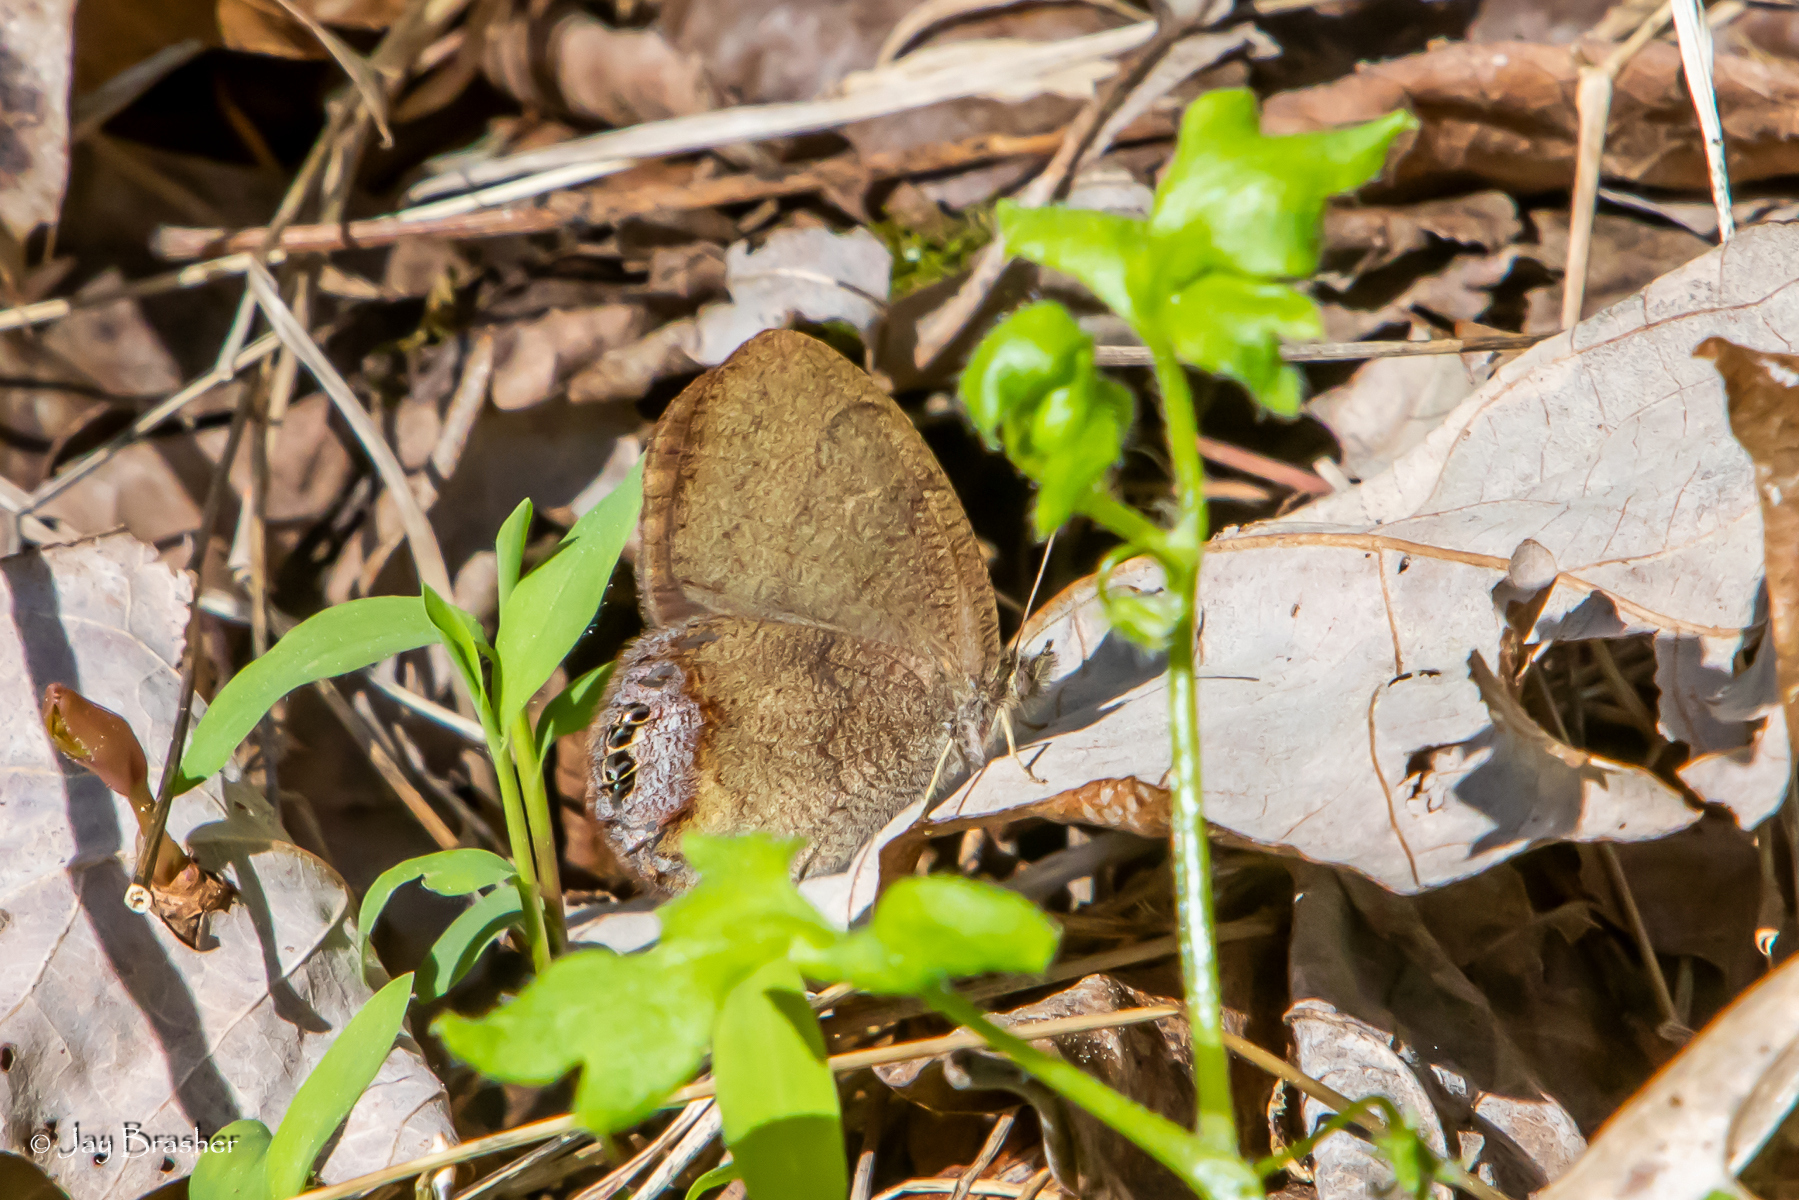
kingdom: Animalia
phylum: Arthropoda
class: Insecta
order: Lepidoptera
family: Nymphalidae
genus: Euptychia
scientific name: Euptychia cornelius
